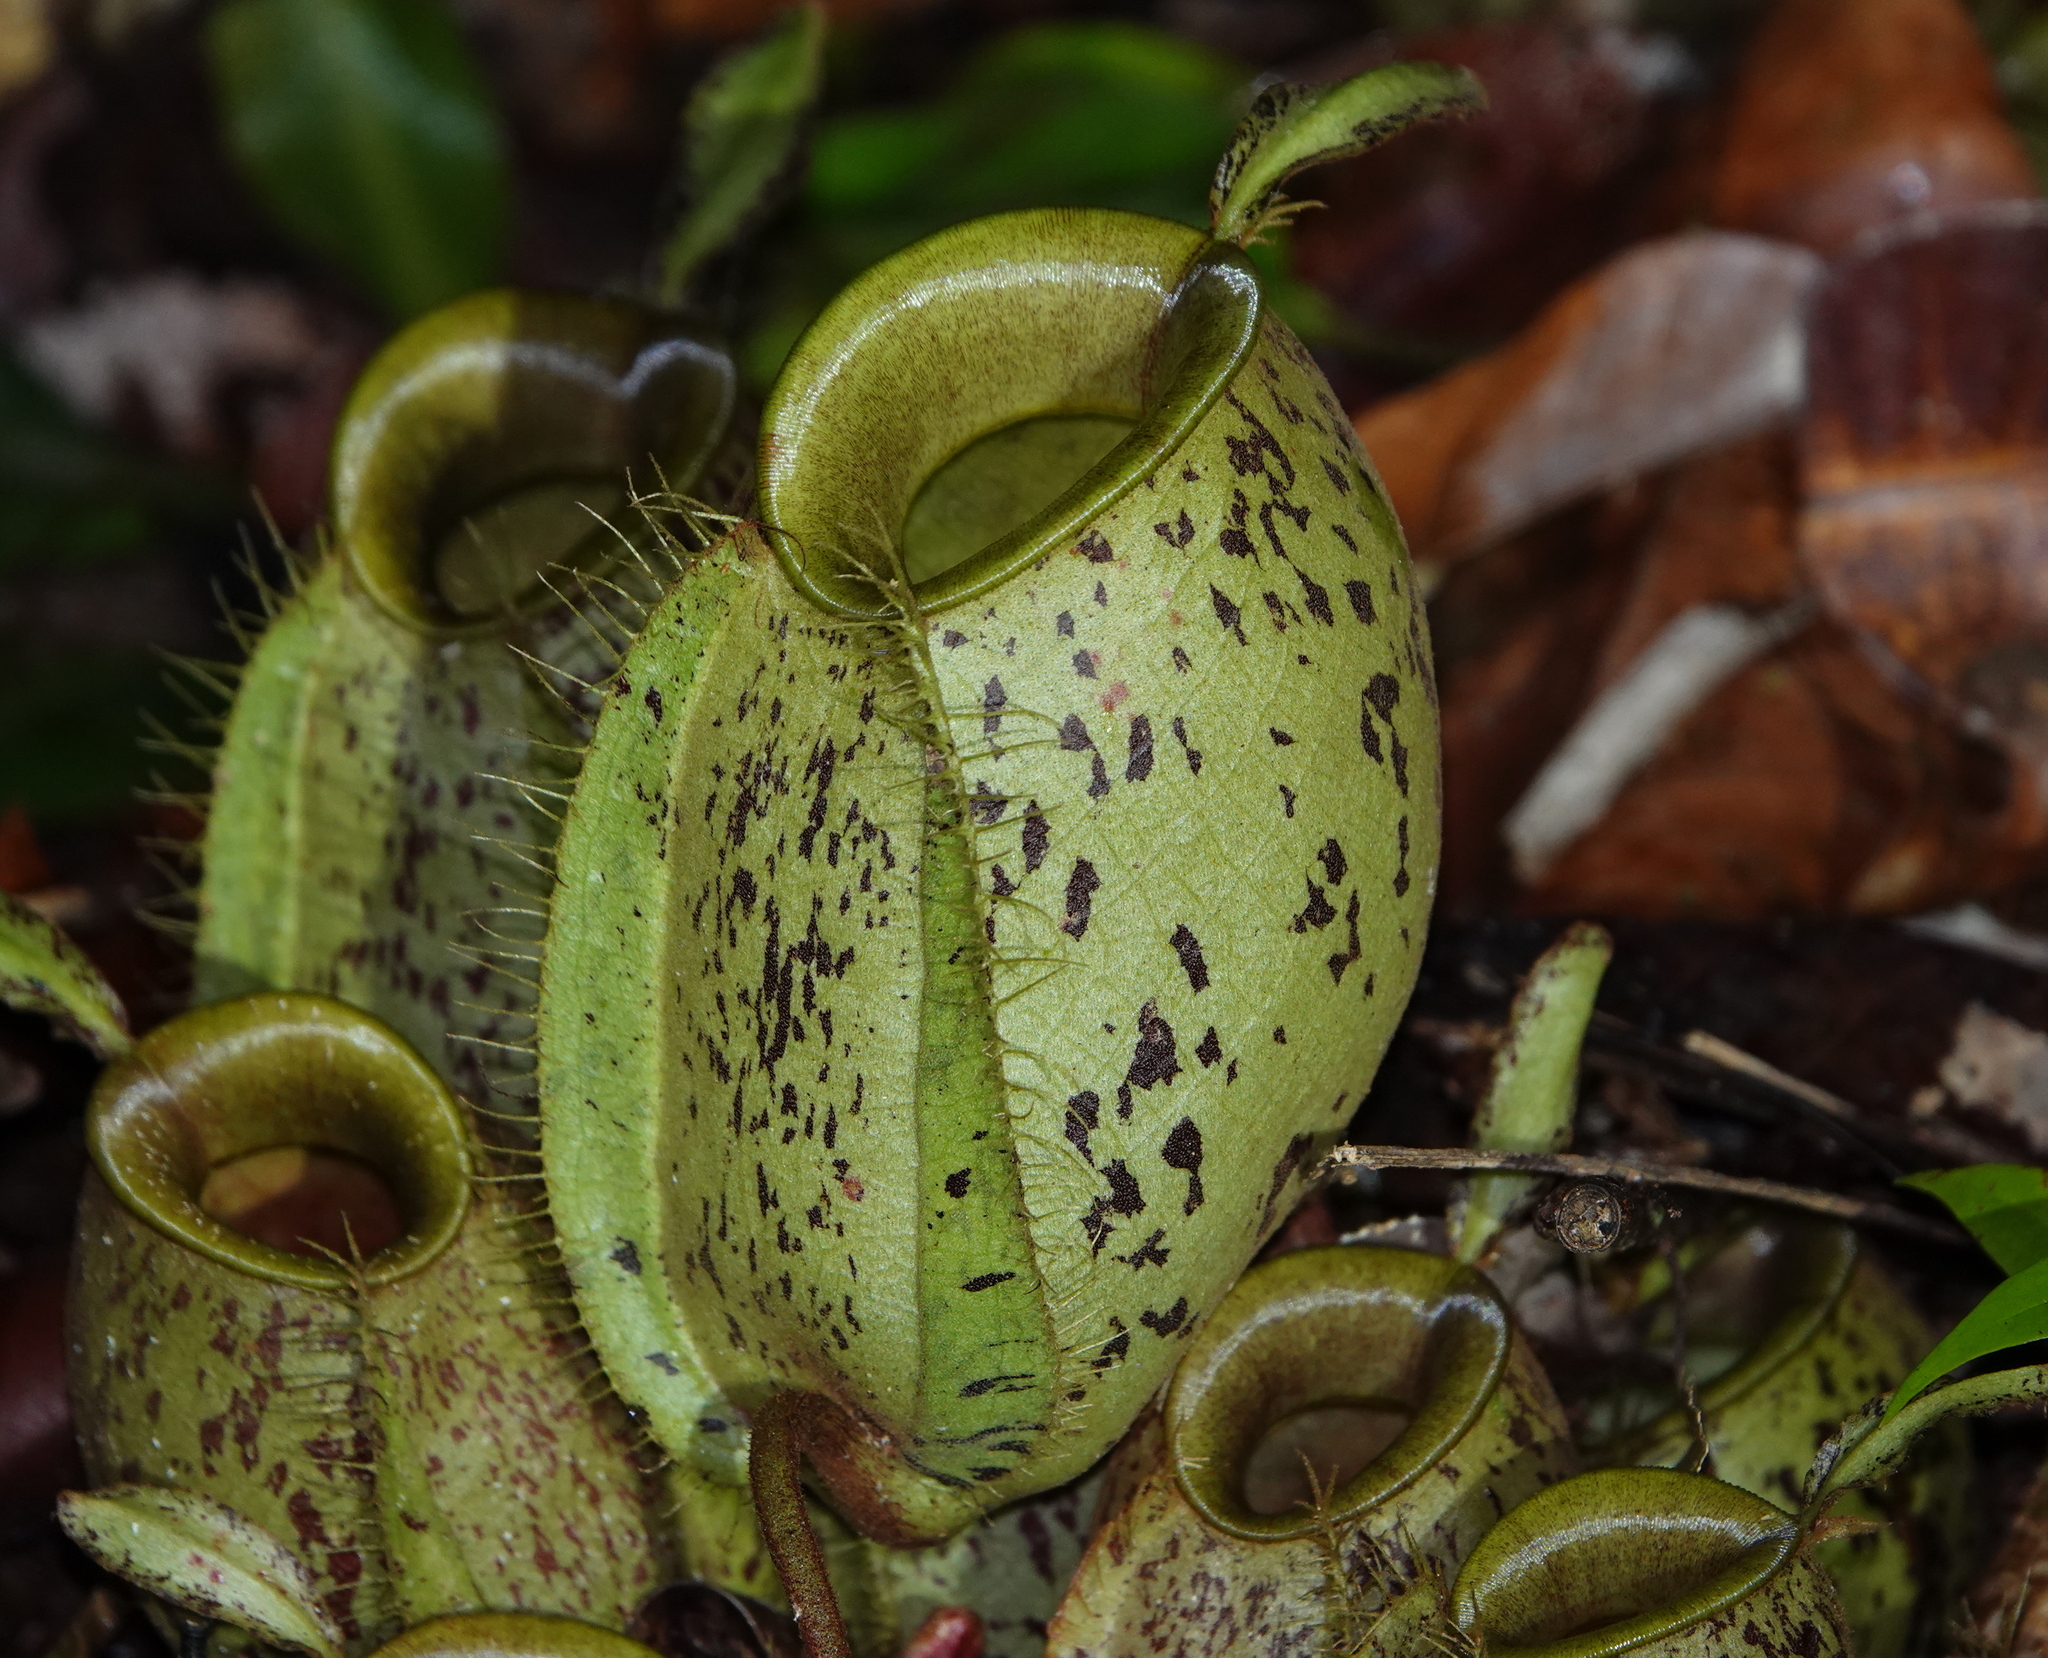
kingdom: Plantae
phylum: Tracheophyta
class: Magnoliopsida
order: Caryophyllales
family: Nepenthaceae
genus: Nepenthes
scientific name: Nepenthes ampullaria
